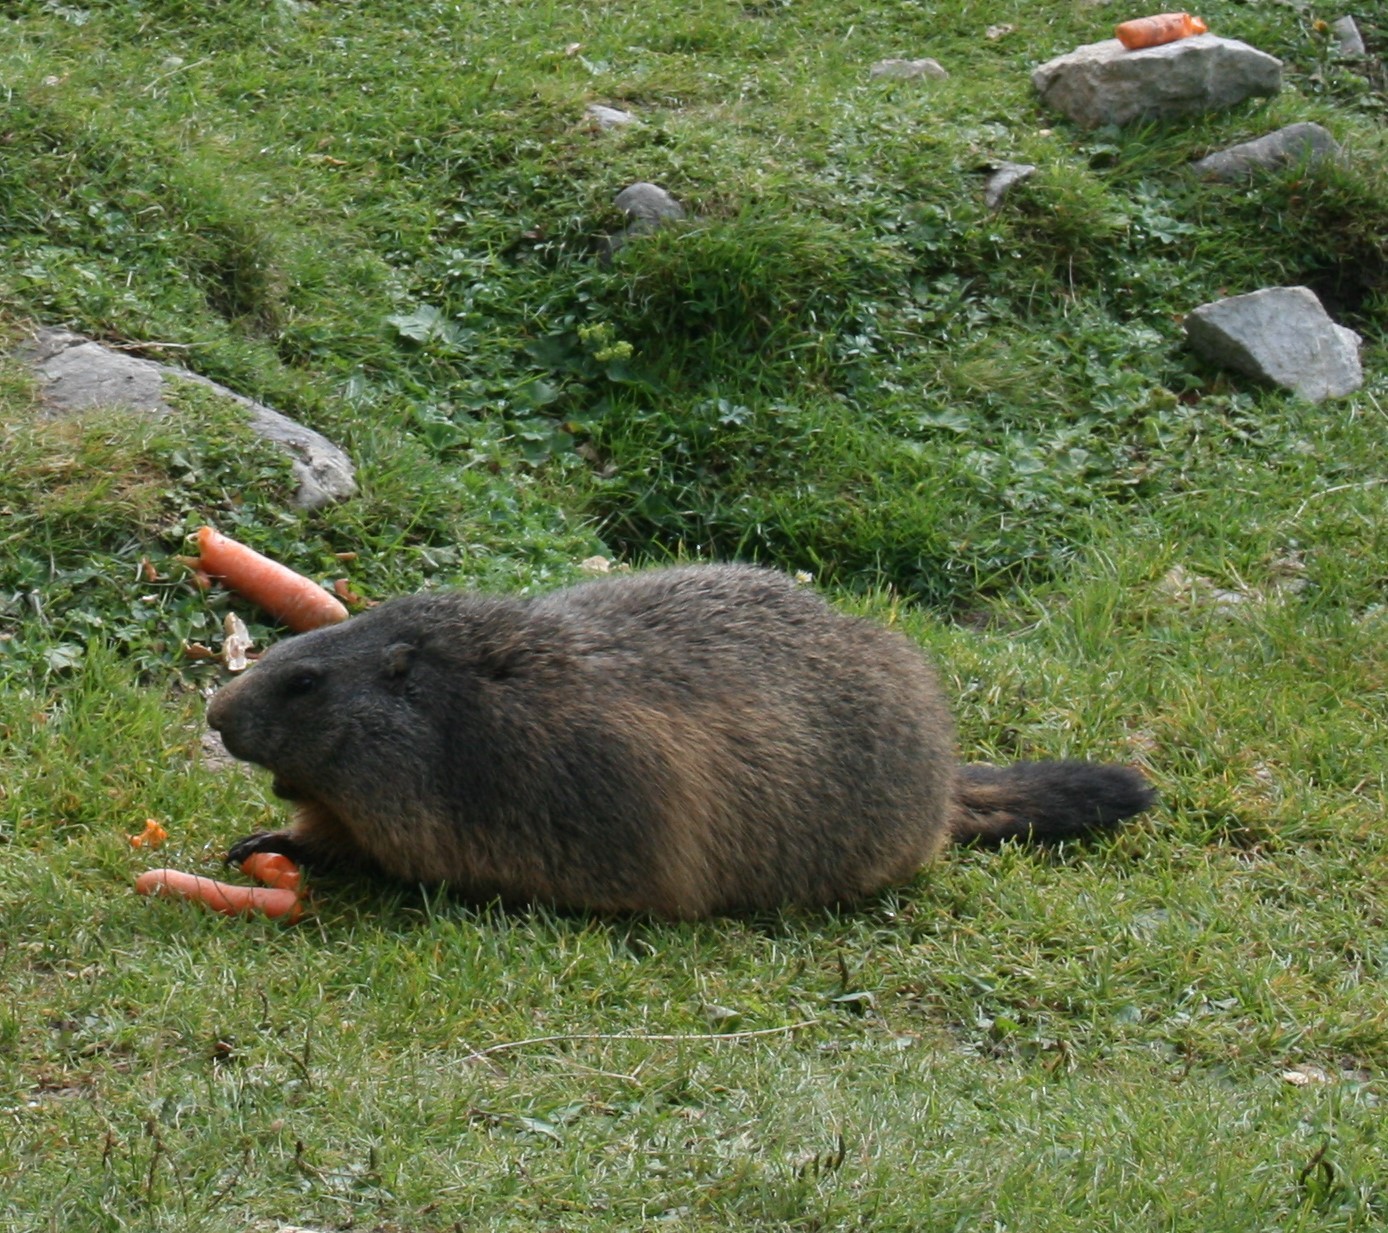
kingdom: Animalia
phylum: Chordata
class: Mammalia
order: Rodentia
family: Sciuridae
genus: Marmota
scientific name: Marmota marmota
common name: Alpine marmot
